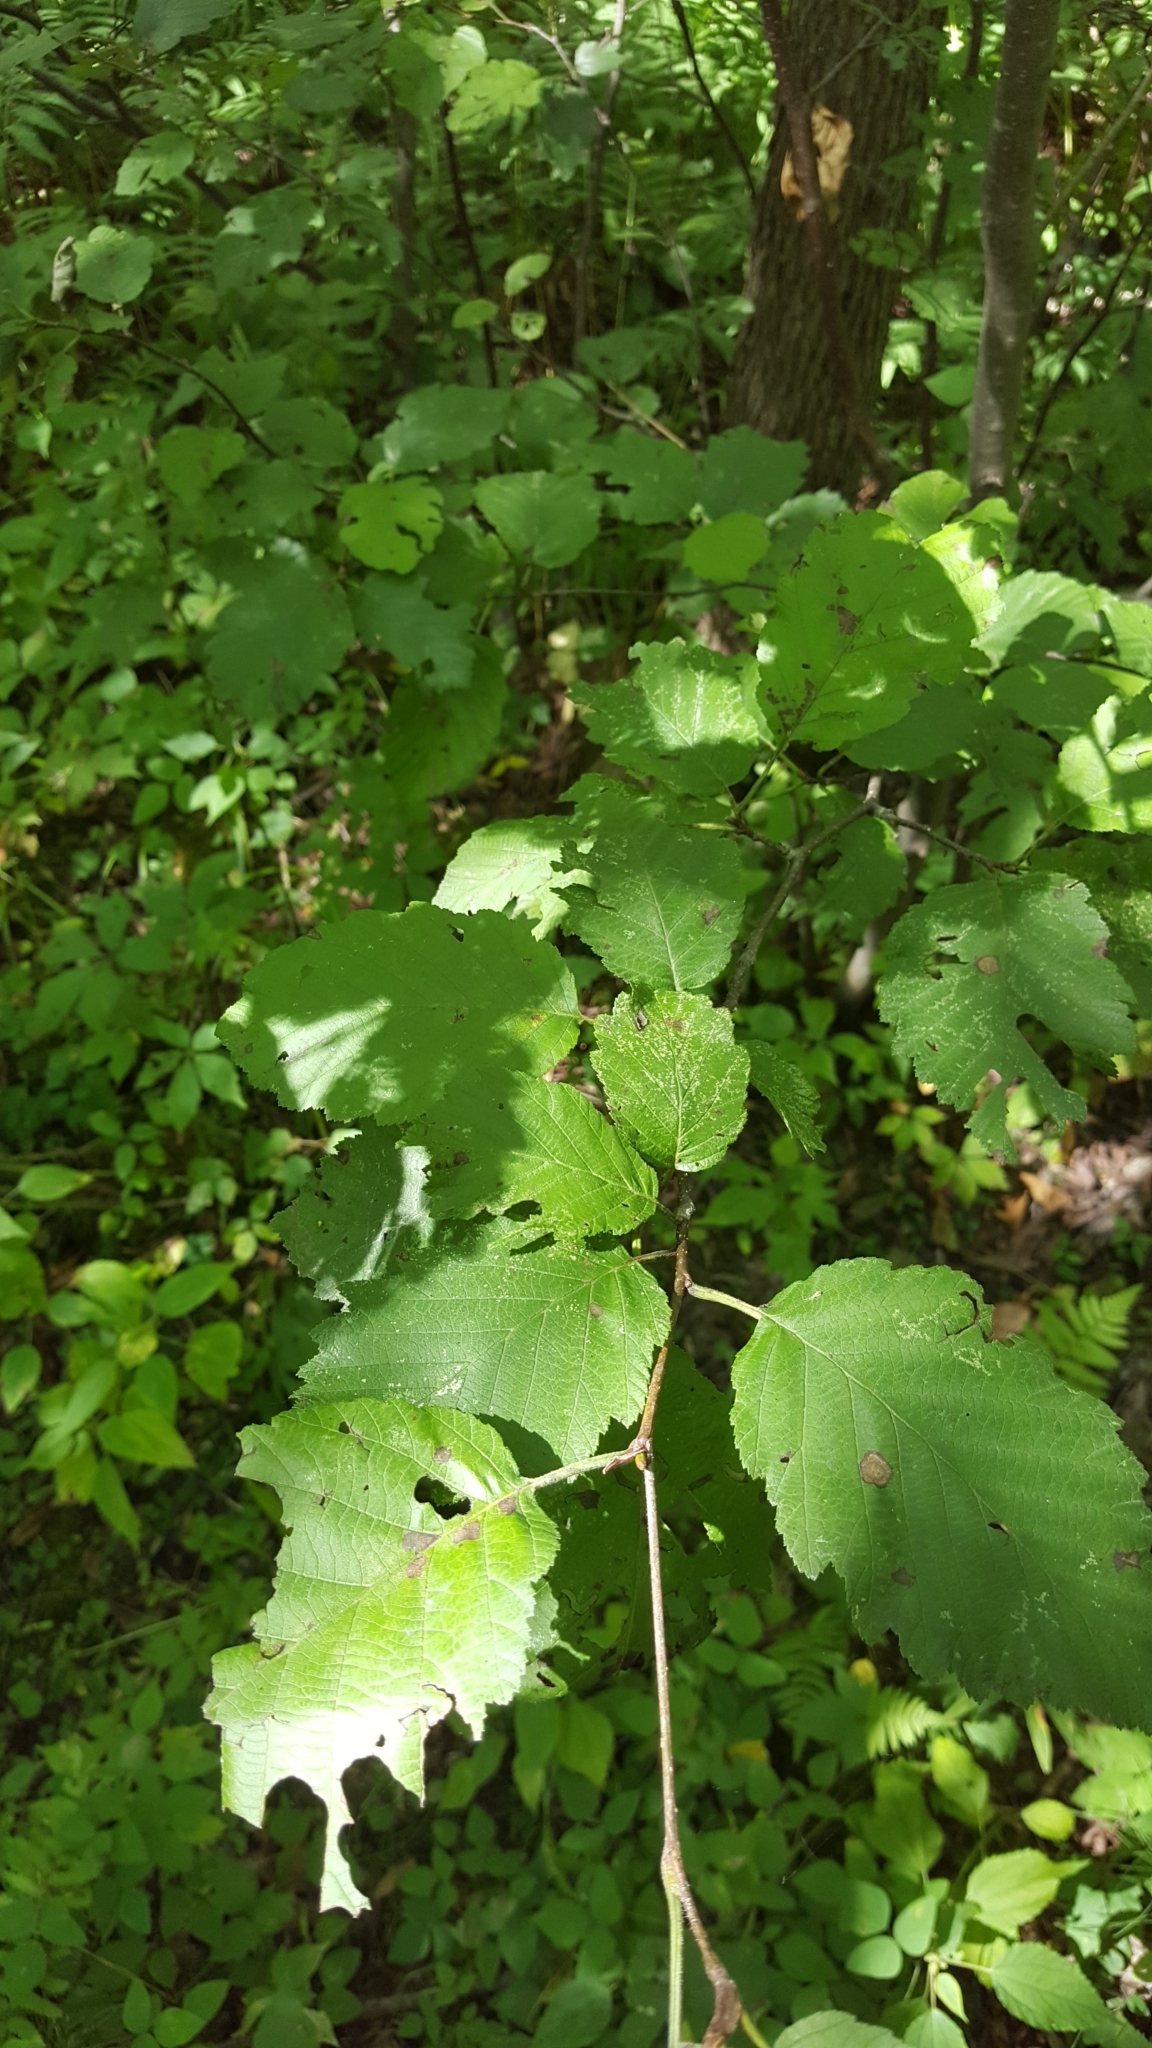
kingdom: Plantae
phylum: Tracheophyta
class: Magnoliopsida
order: Fagales
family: Betulaceae
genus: Alnus
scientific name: Alnus incana
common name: Grey alder
